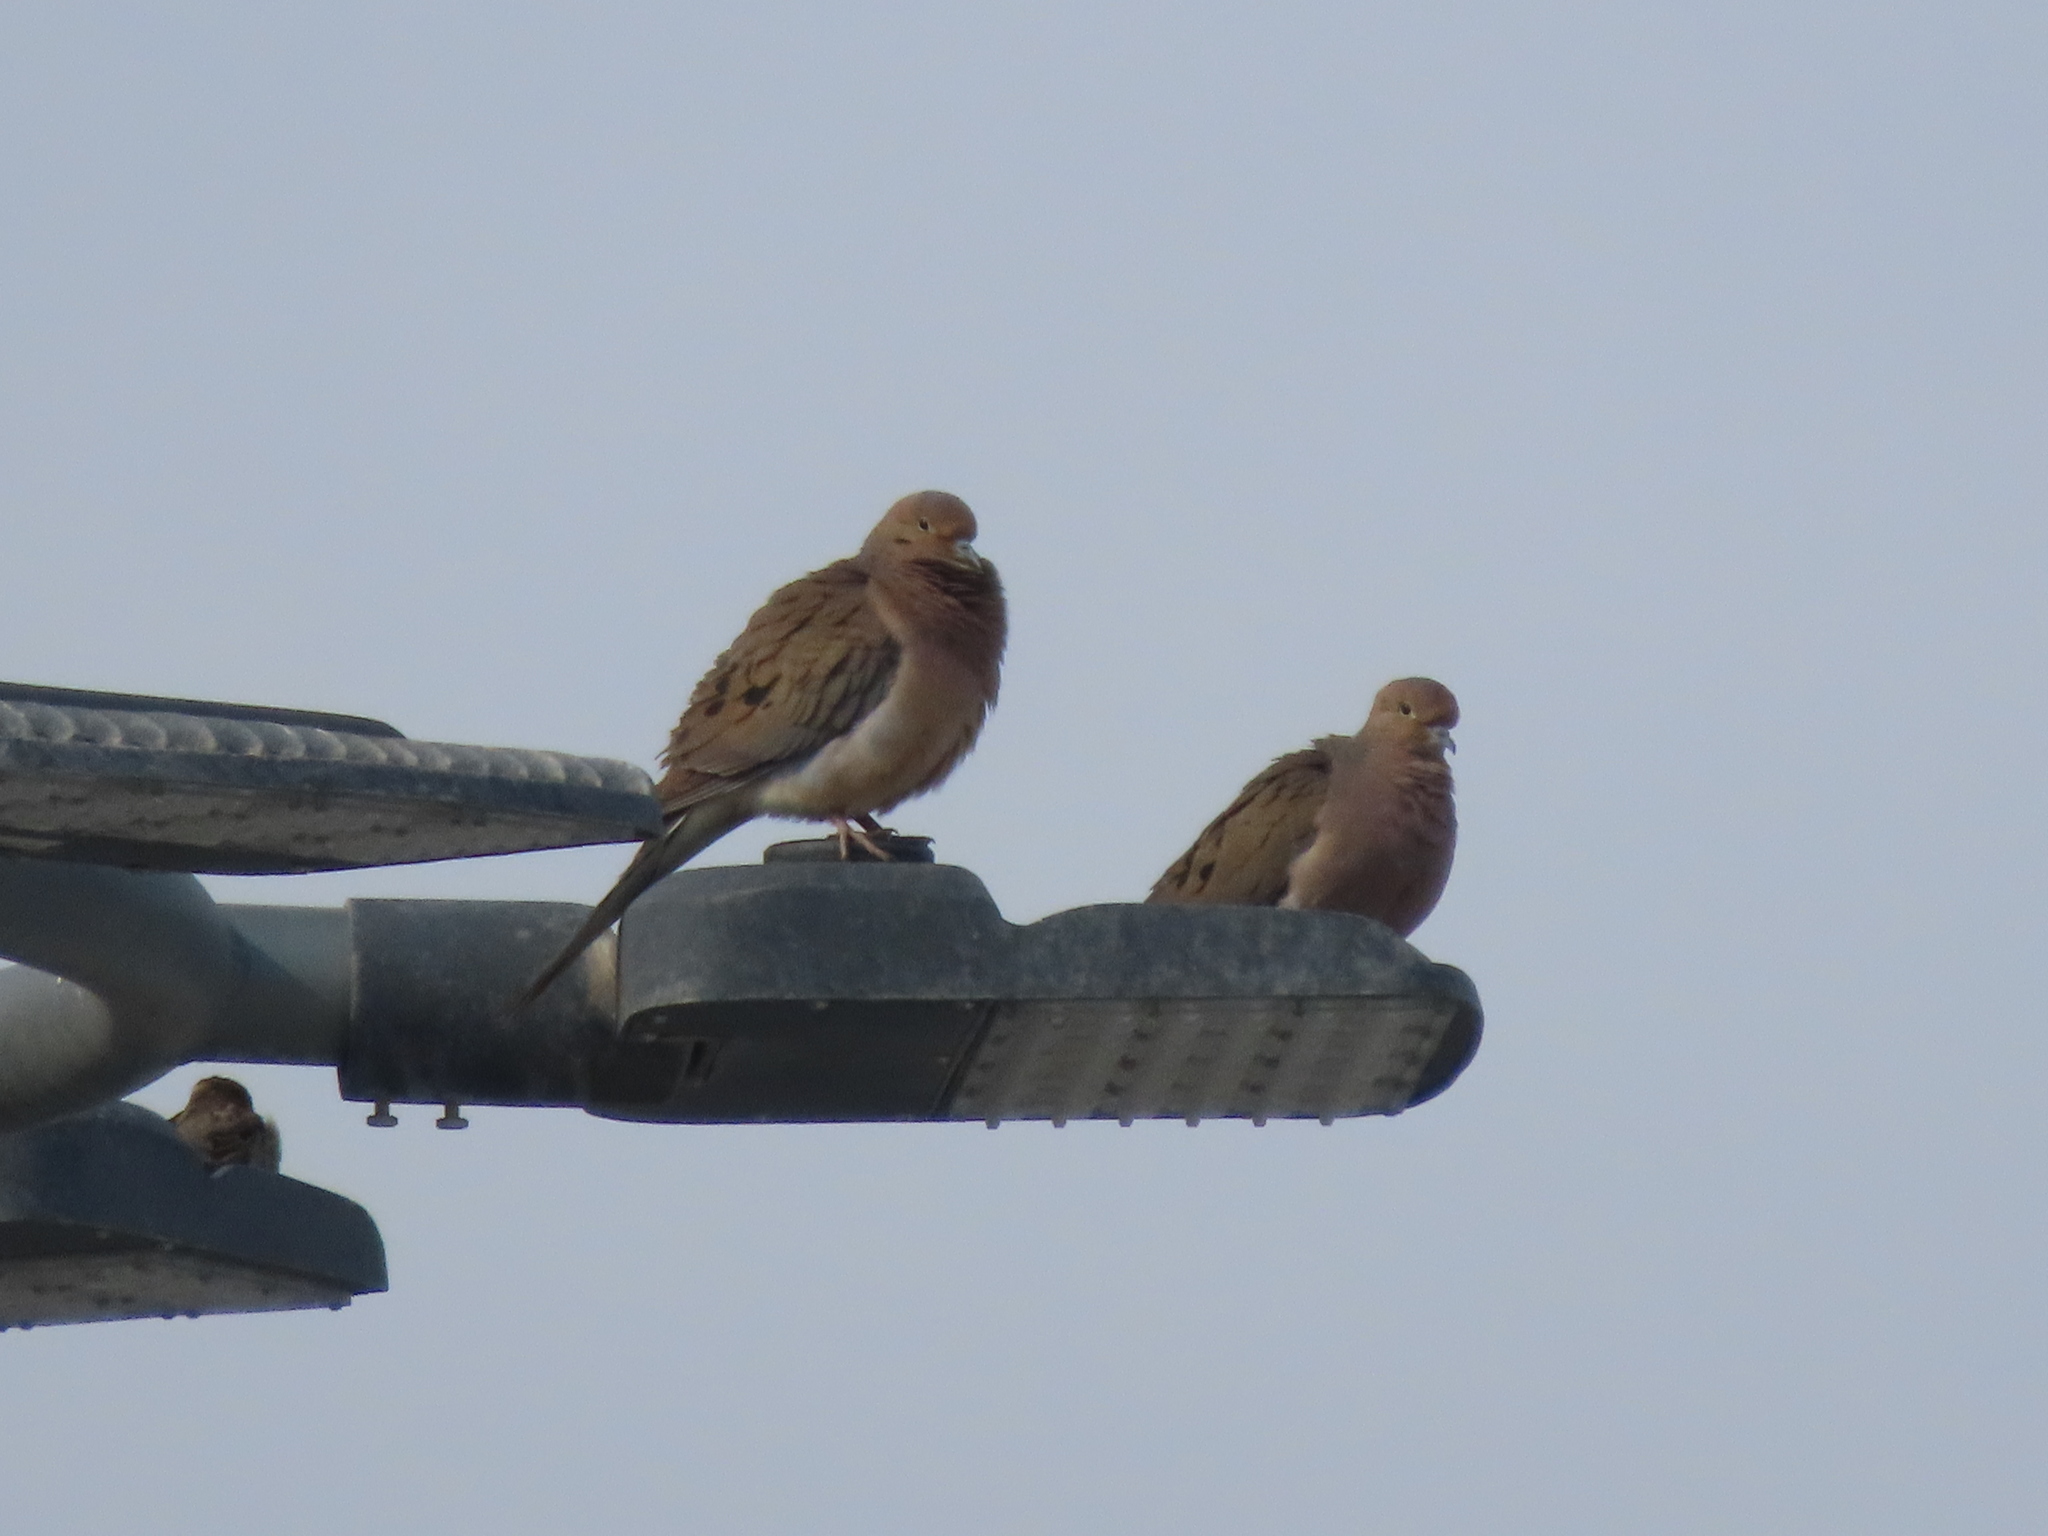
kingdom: Animalia
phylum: Chordata
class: Aves
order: Columbiformes
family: Columbidae
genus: Zenaida
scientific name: Zenaida macroura
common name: Mourning dove
